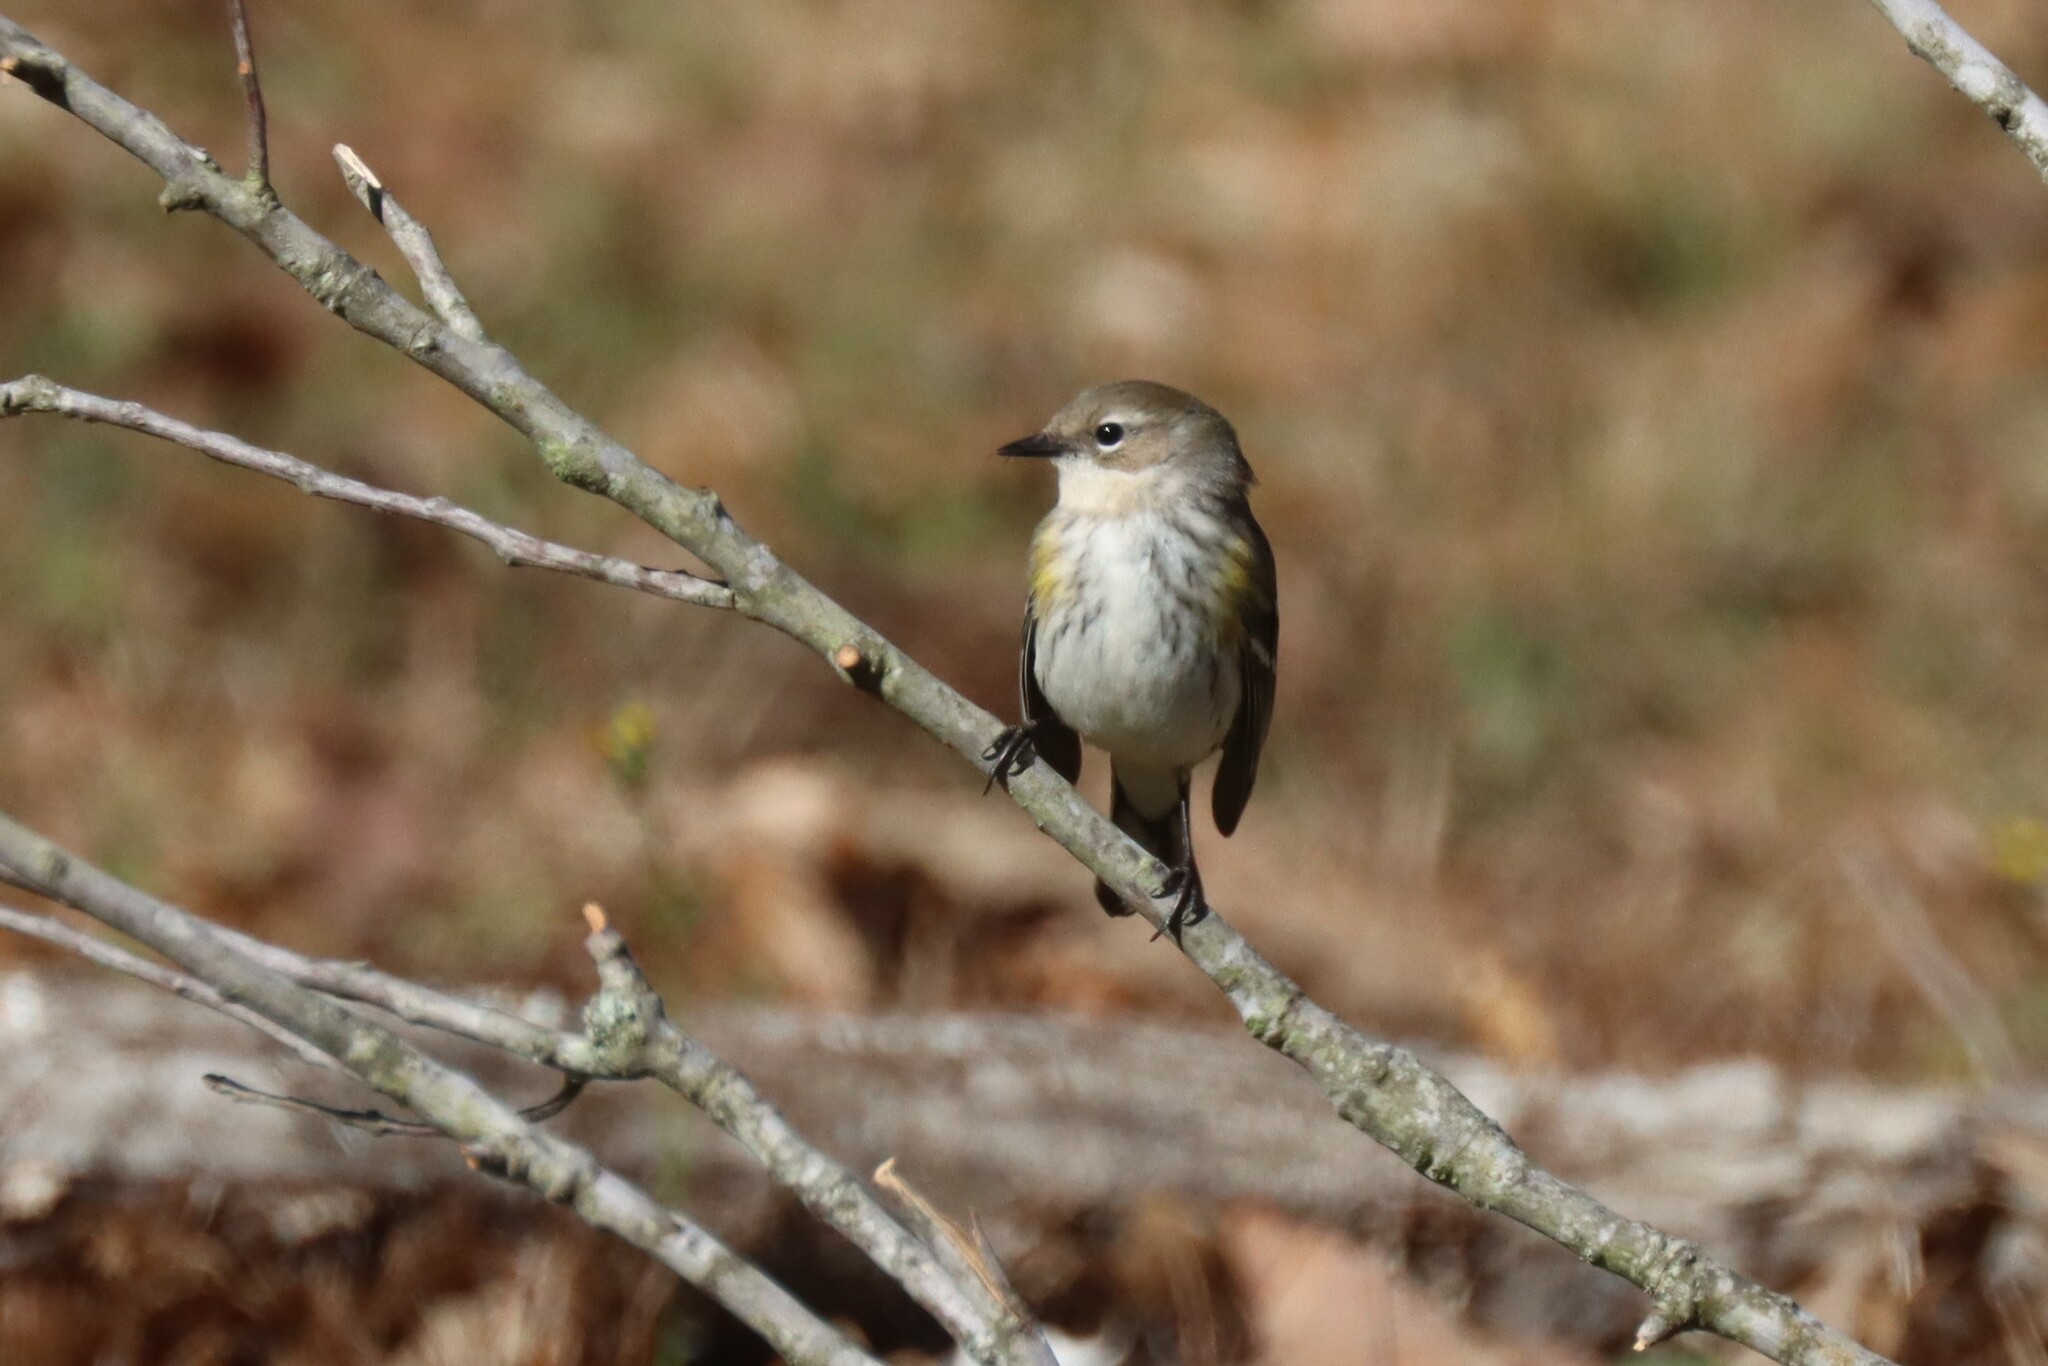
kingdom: Animalia
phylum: Chordata
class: Aves
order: Passeriformes
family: Parulidae
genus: Setophaga
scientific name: Setophaga coronata
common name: Myrtle warbler
